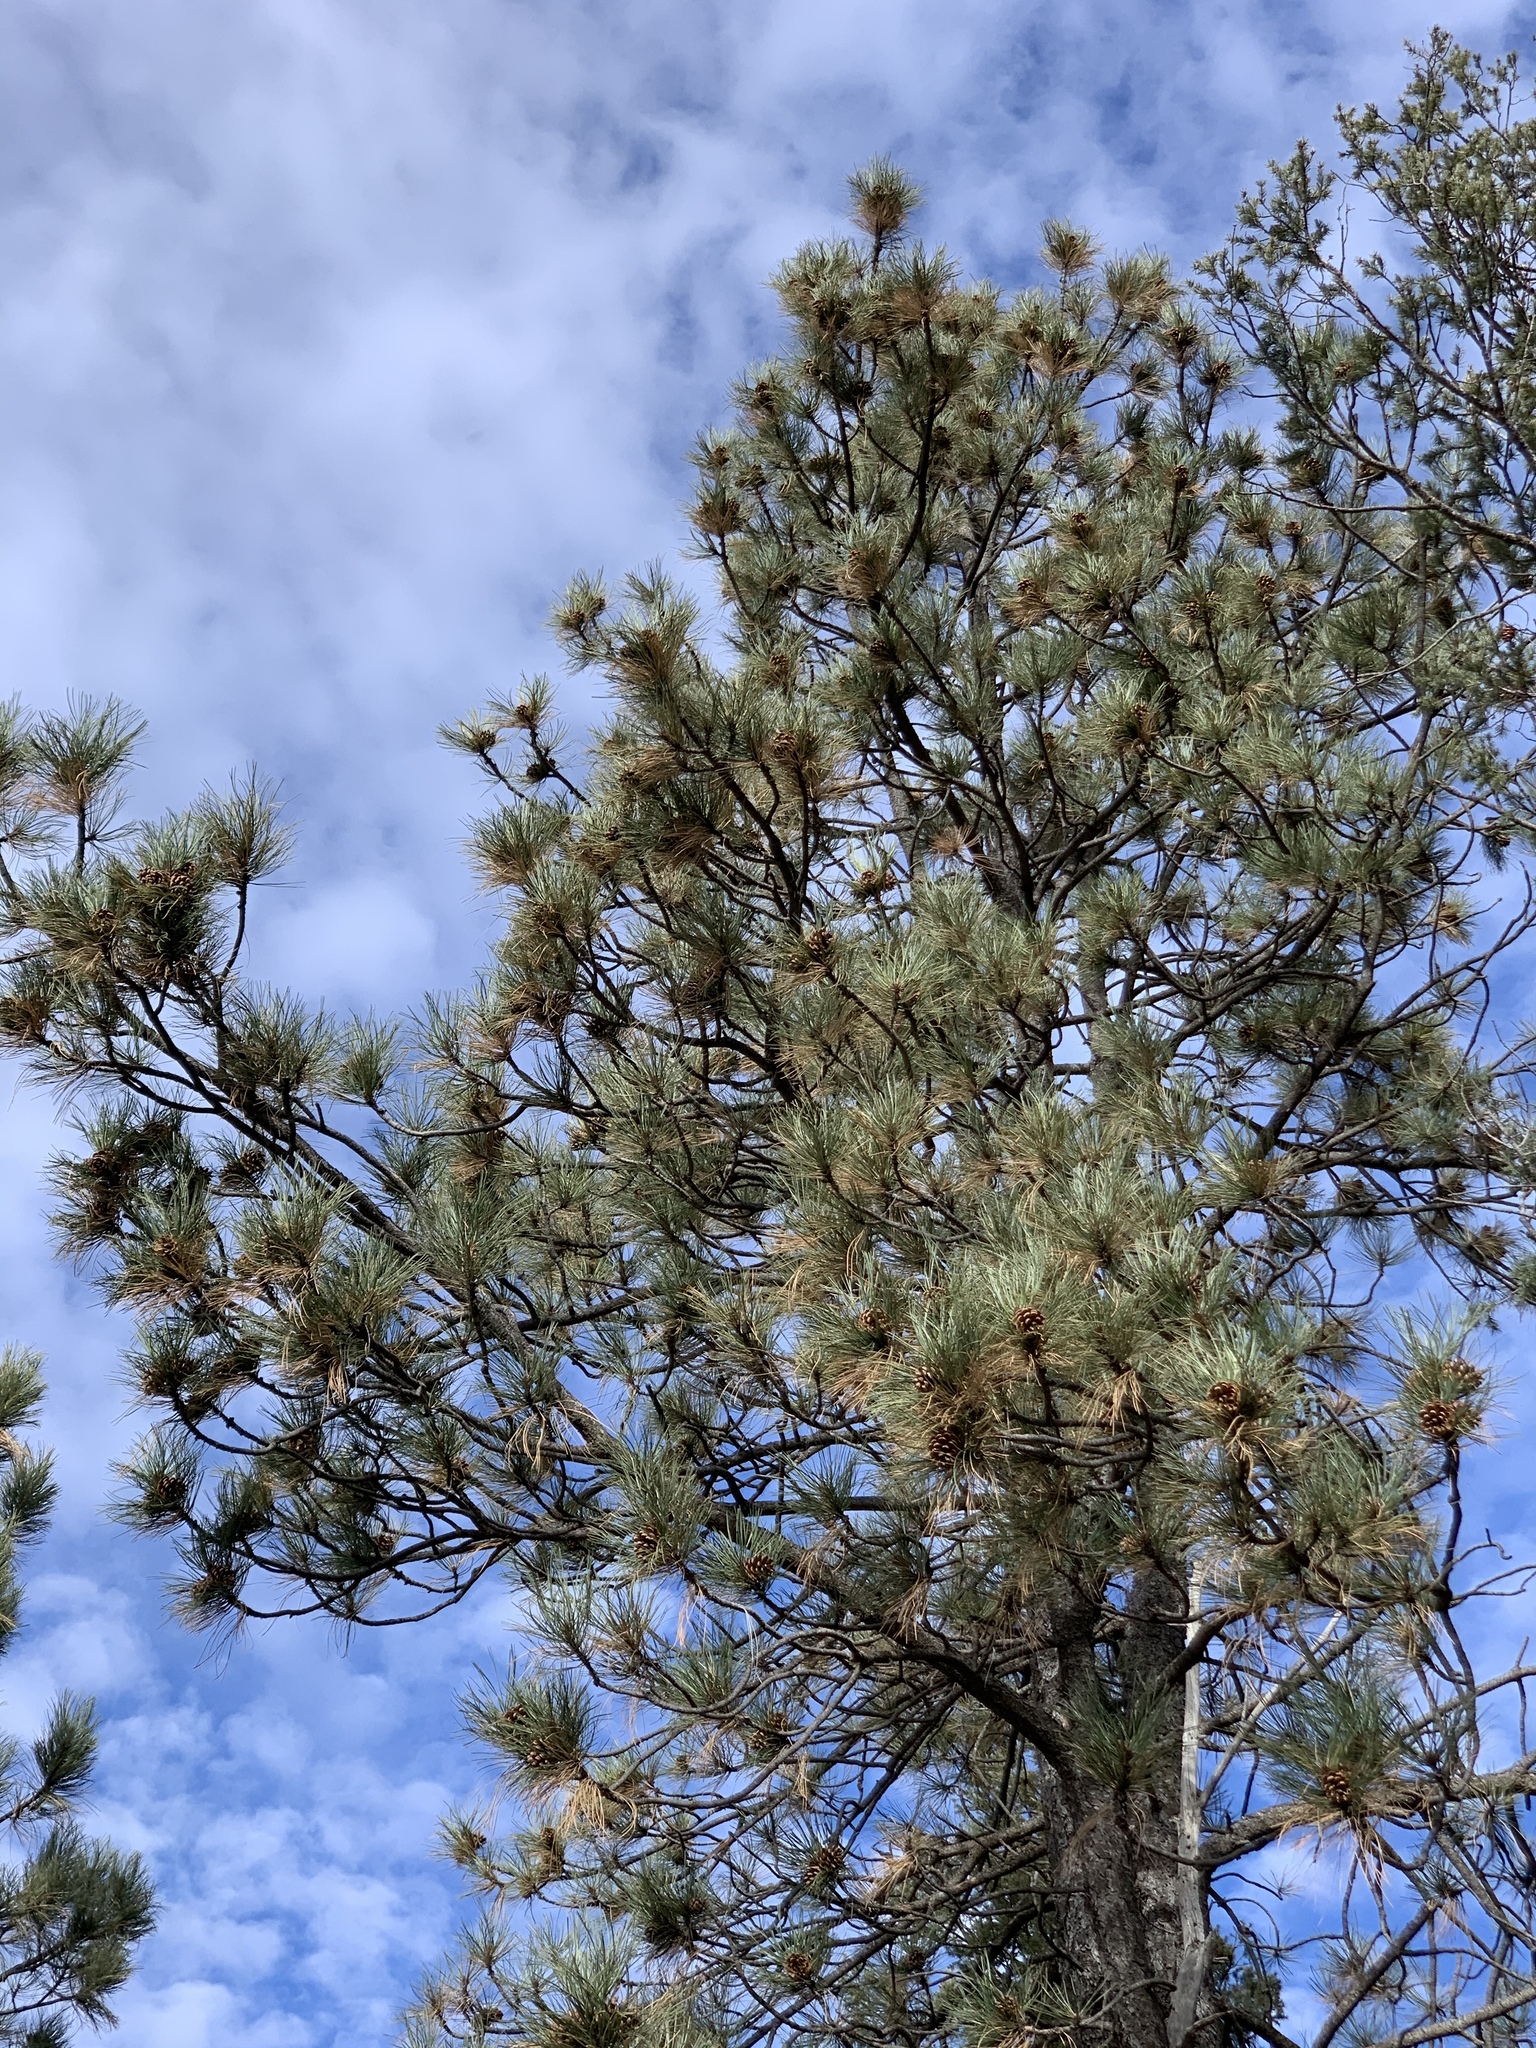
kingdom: Plantae
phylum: Tracheophyta
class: Pinopsida
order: Pinales
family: Pinaceae
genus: Pinus
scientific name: Pinus ponderosa
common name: Western yellow-pine
